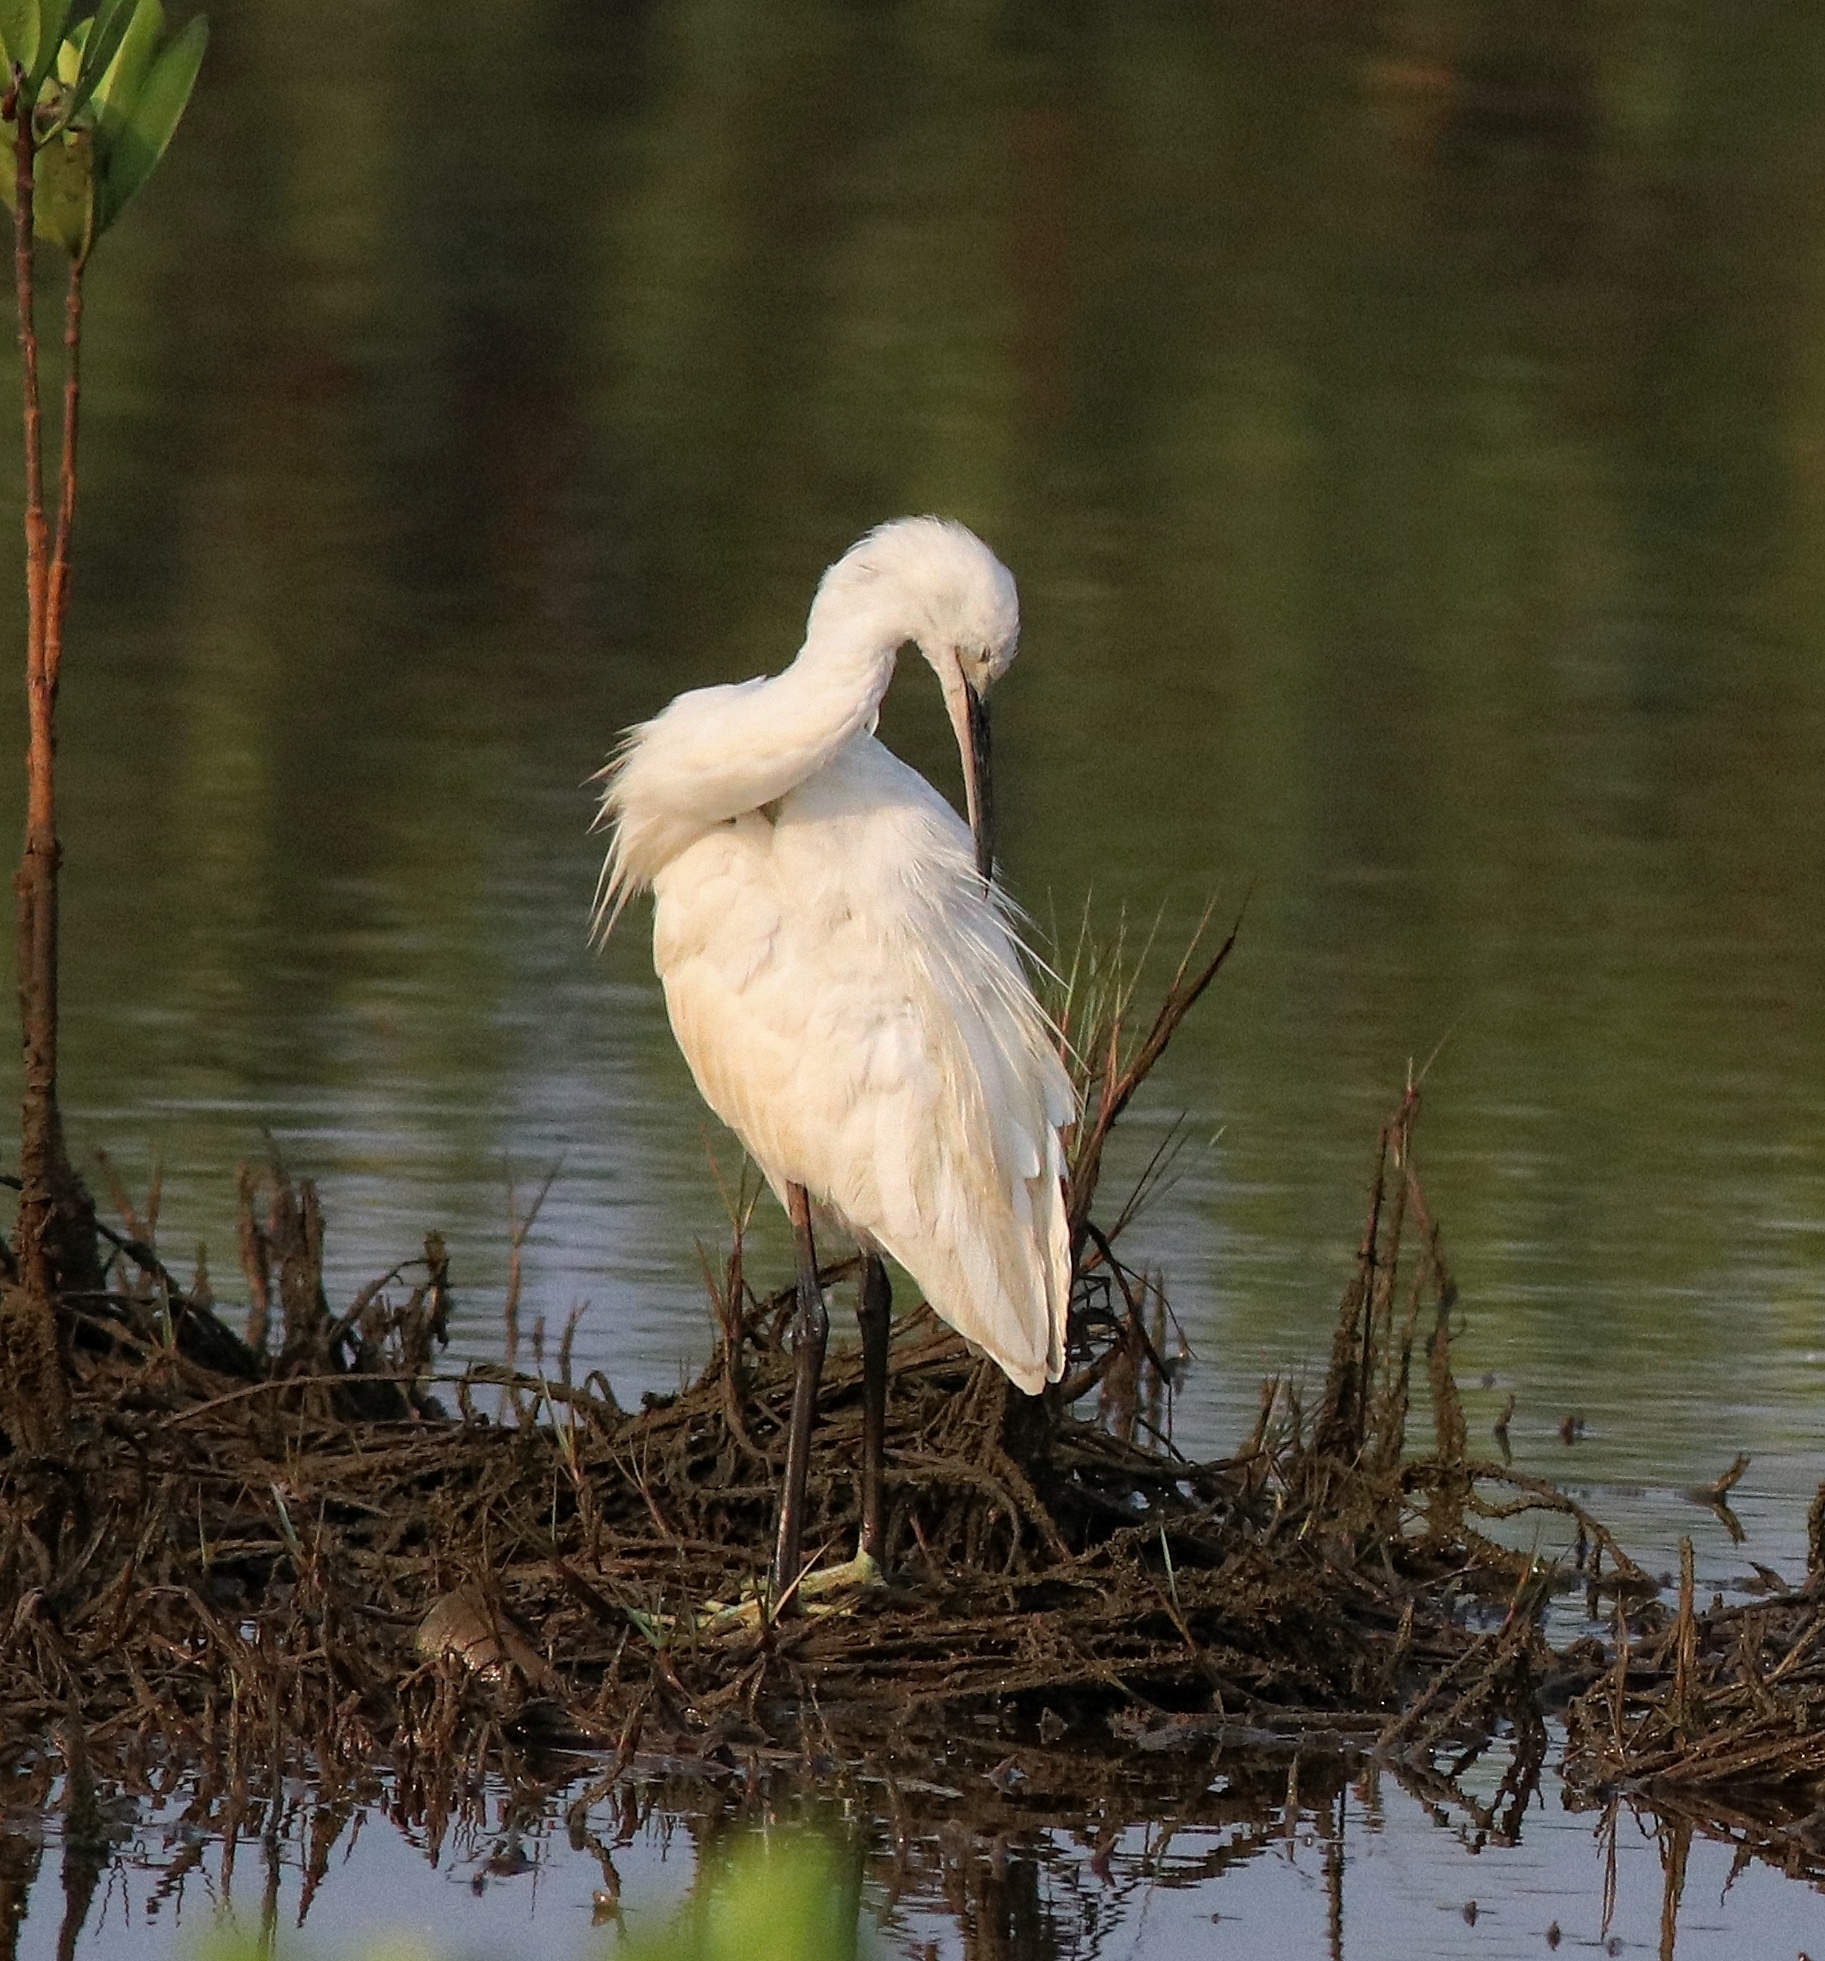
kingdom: Animalia
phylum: Chordata
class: Aves
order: Pelecaniformes
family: Ardeidae
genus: Egretta
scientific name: Egretta garzetta
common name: Little egret
